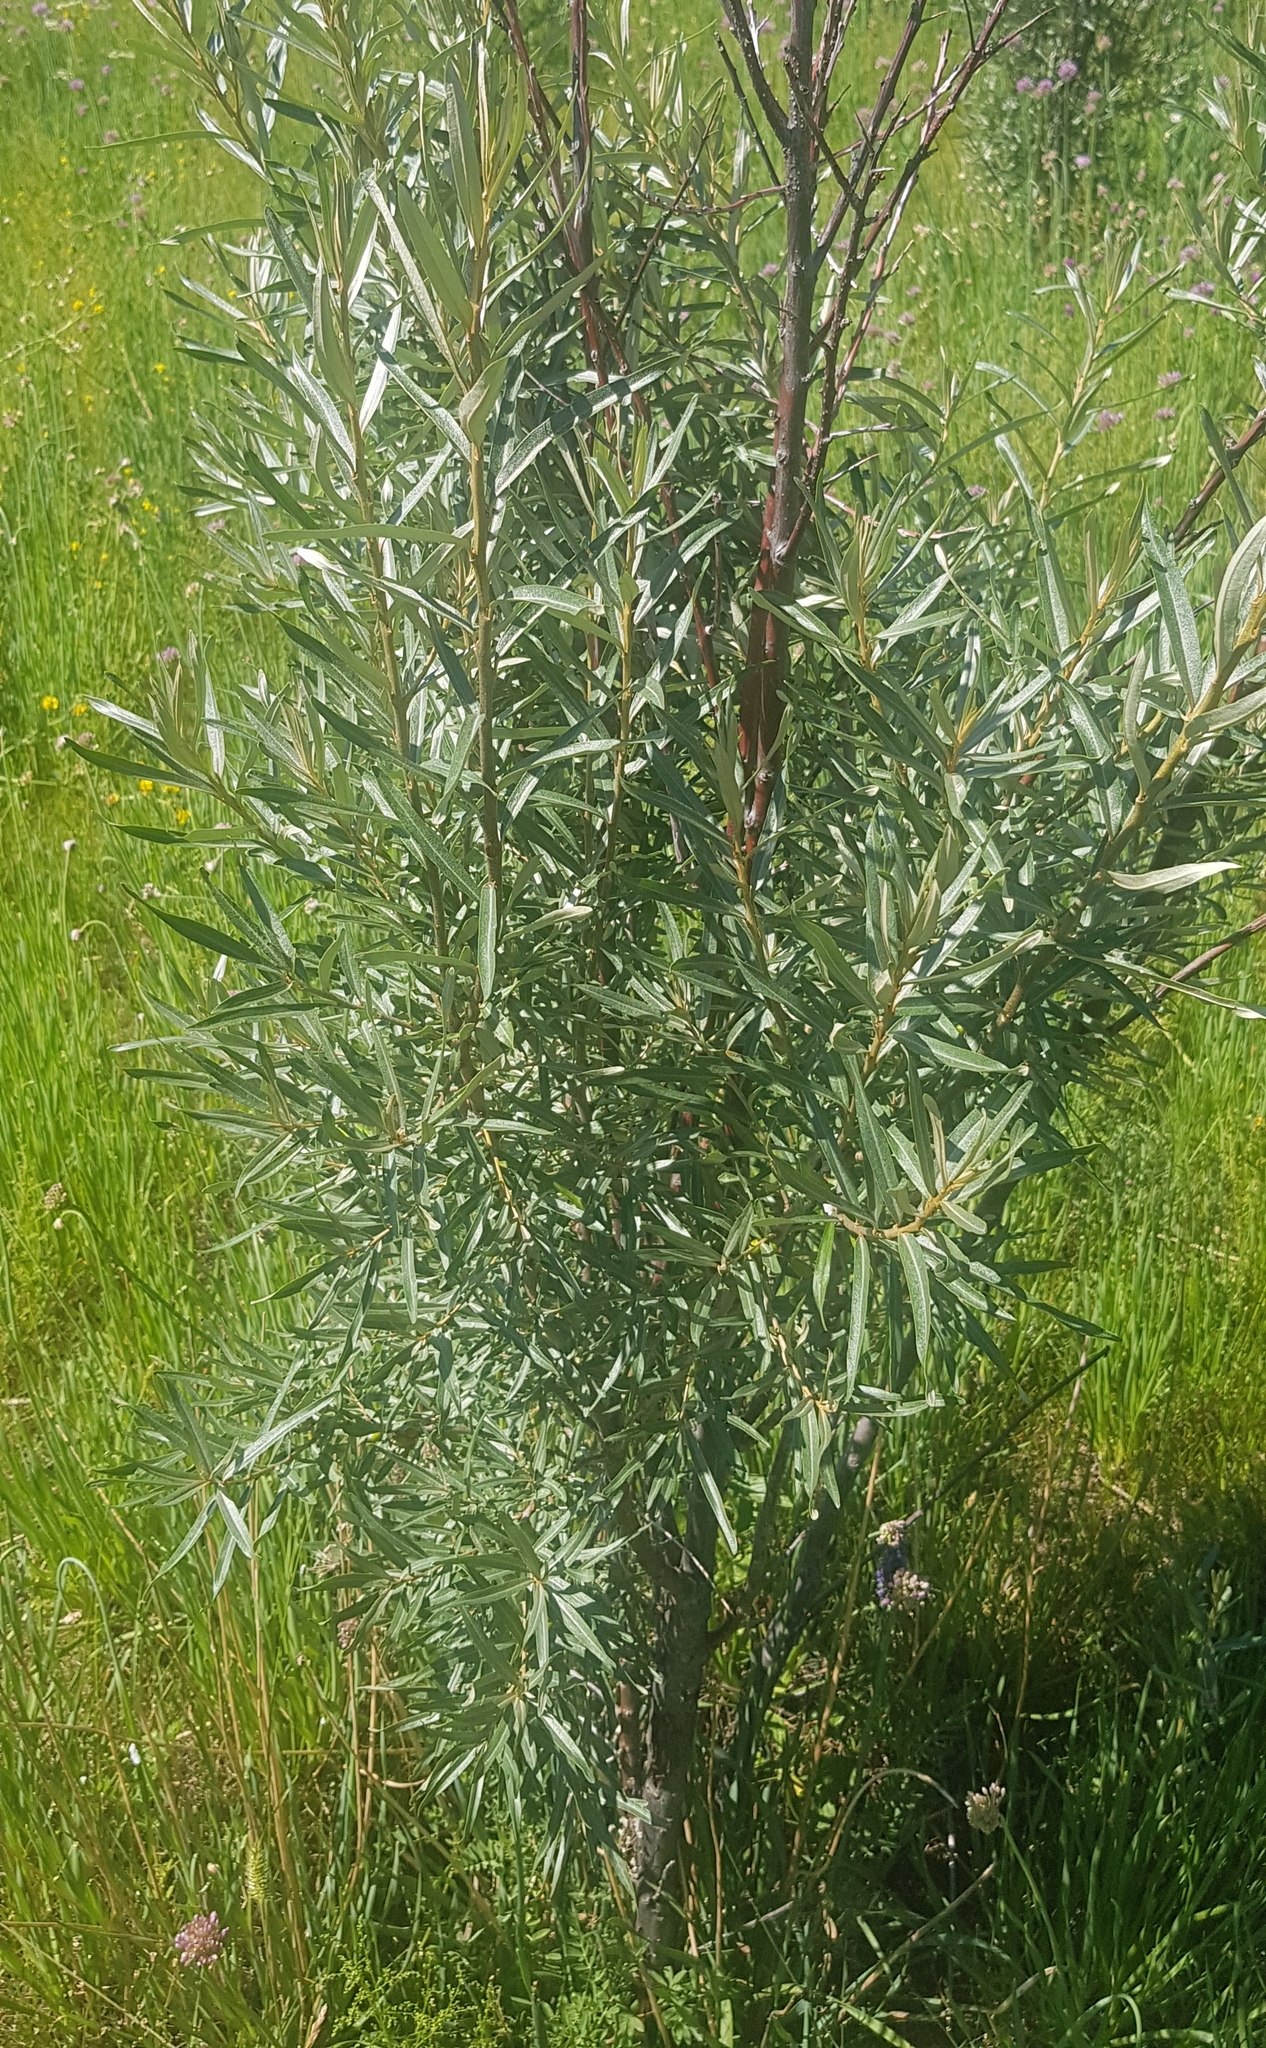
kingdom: Plantae
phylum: Tracheophyta
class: Magnoliopsida
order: Rosales
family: Elaeagnaceae
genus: Hippophae
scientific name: Hippophae rhamnoides
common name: Sea-buckthorn
